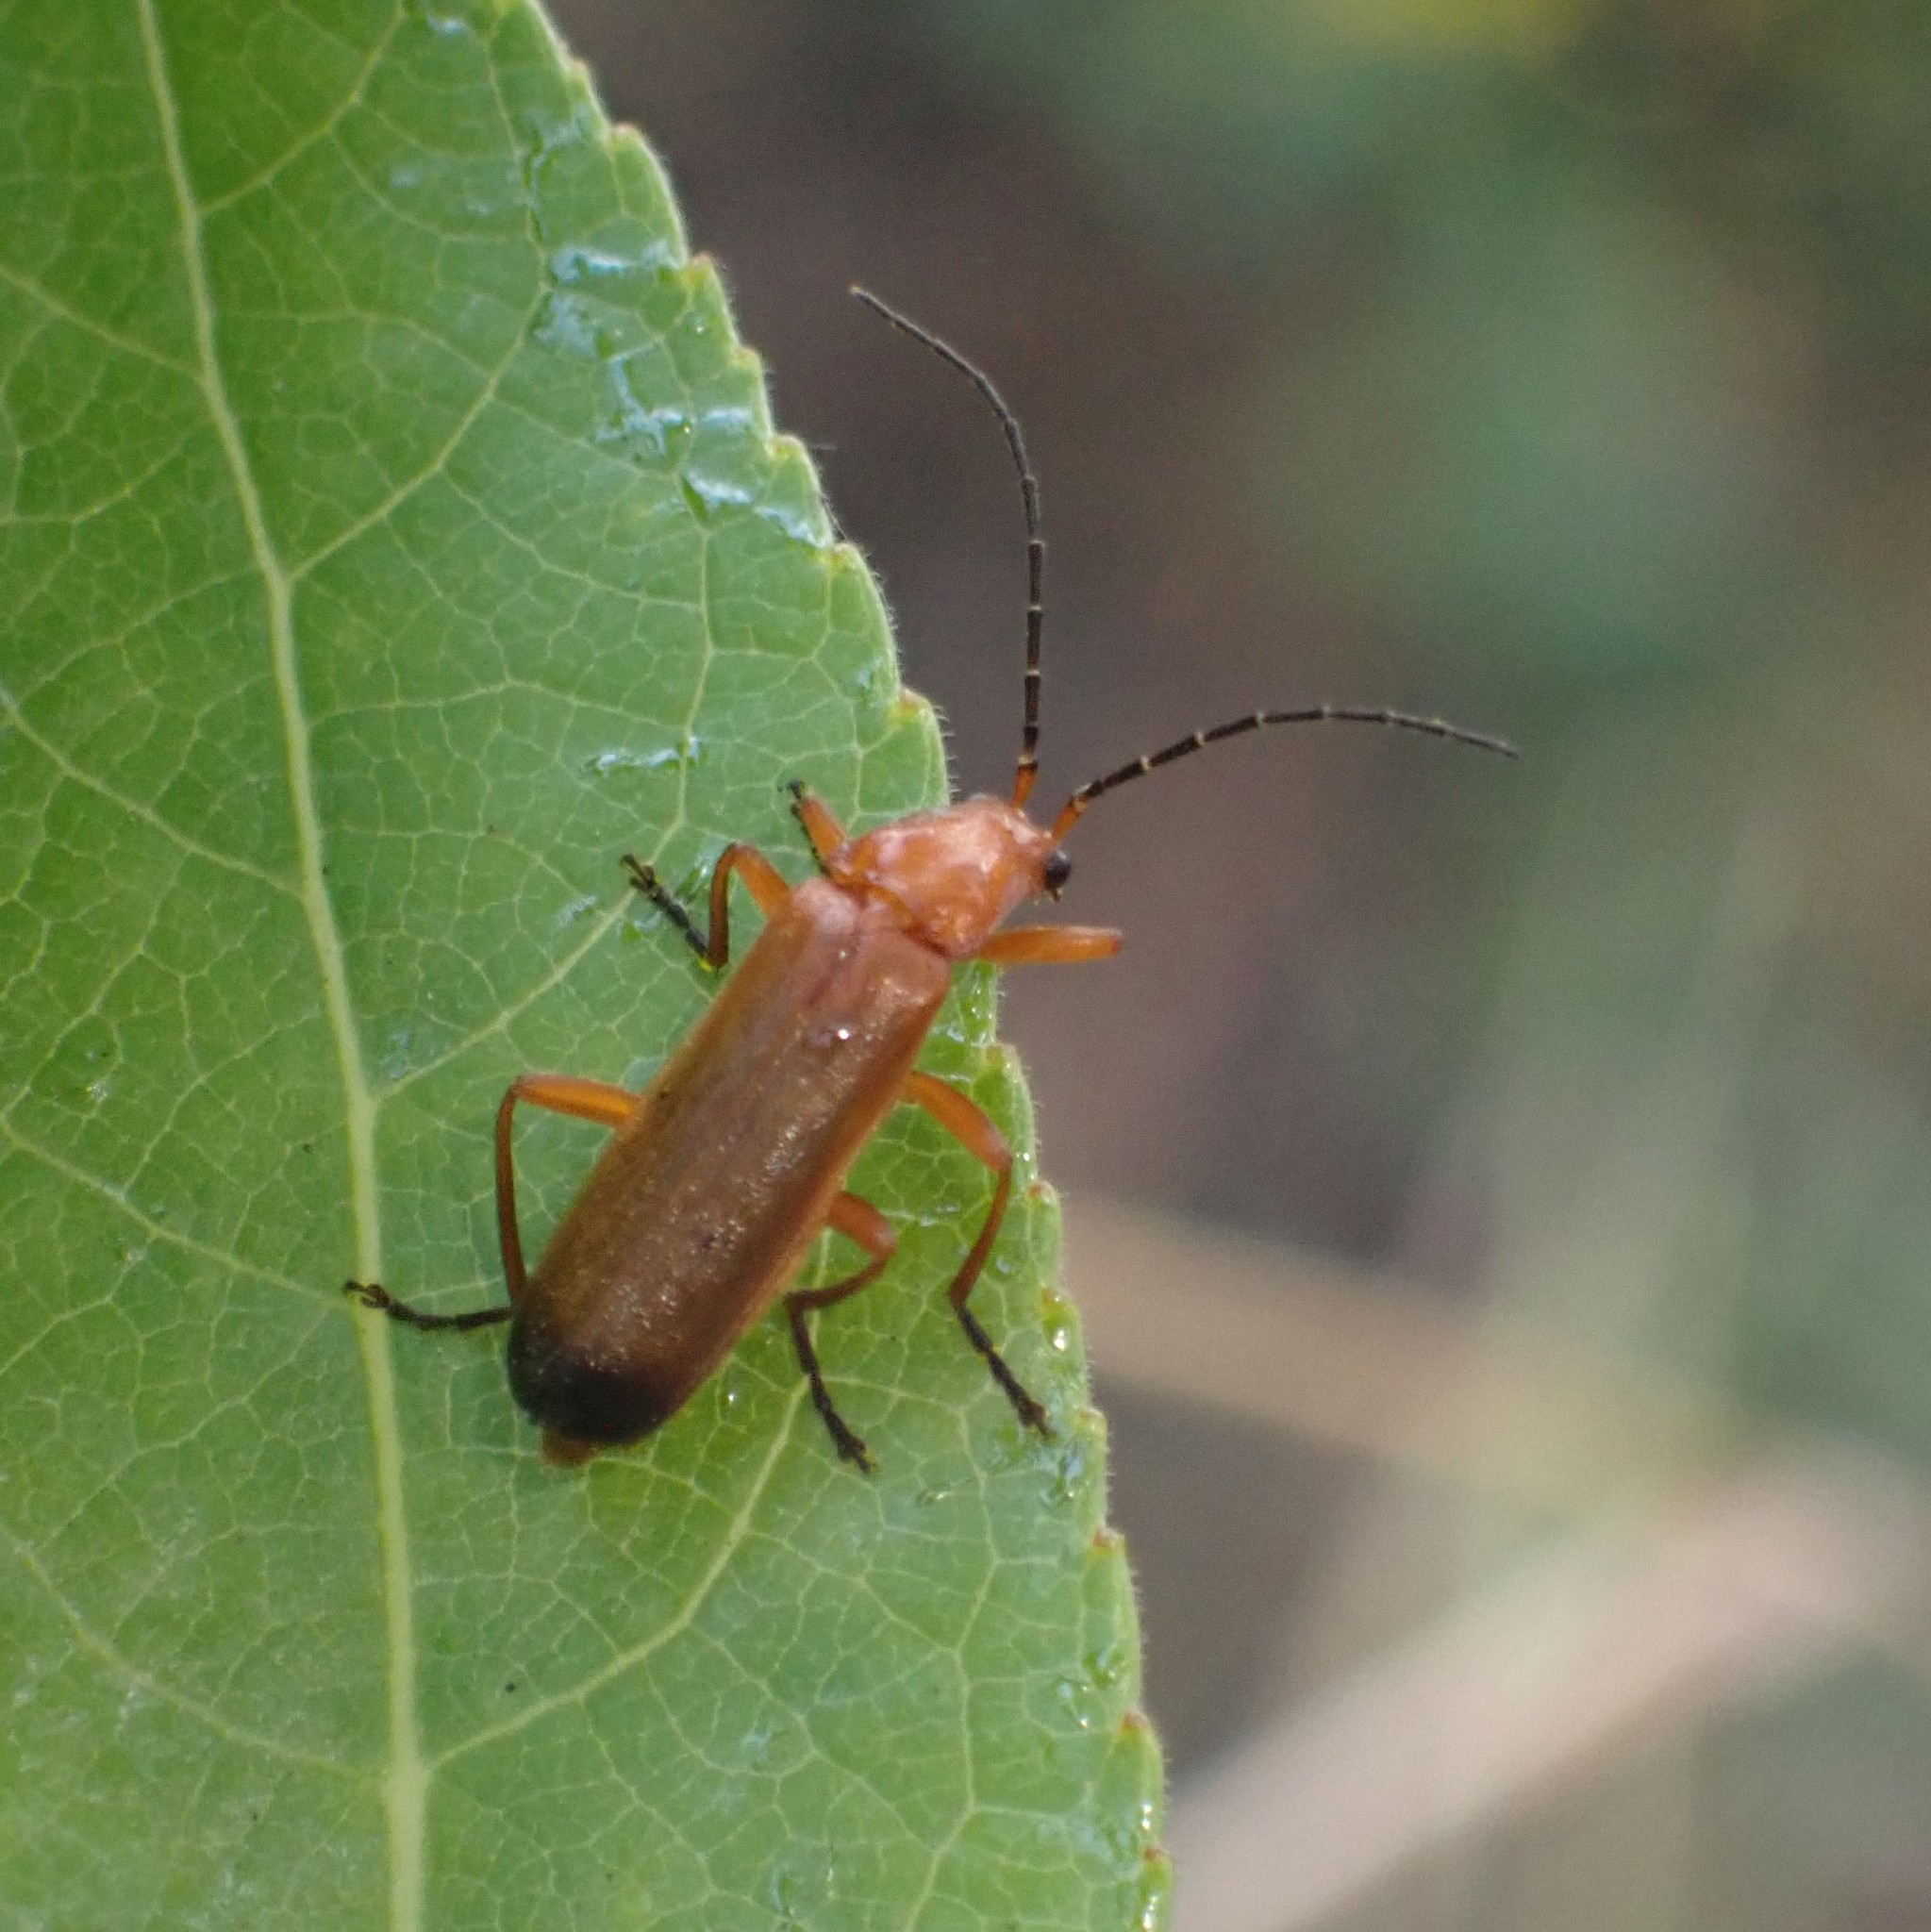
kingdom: Animalia
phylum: Arthropoda
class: Insecta
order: Coleoptera
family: Cantharidae
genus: Rhagonycha
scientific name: Rhagonycha fulva
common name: Common red soldier beetle
